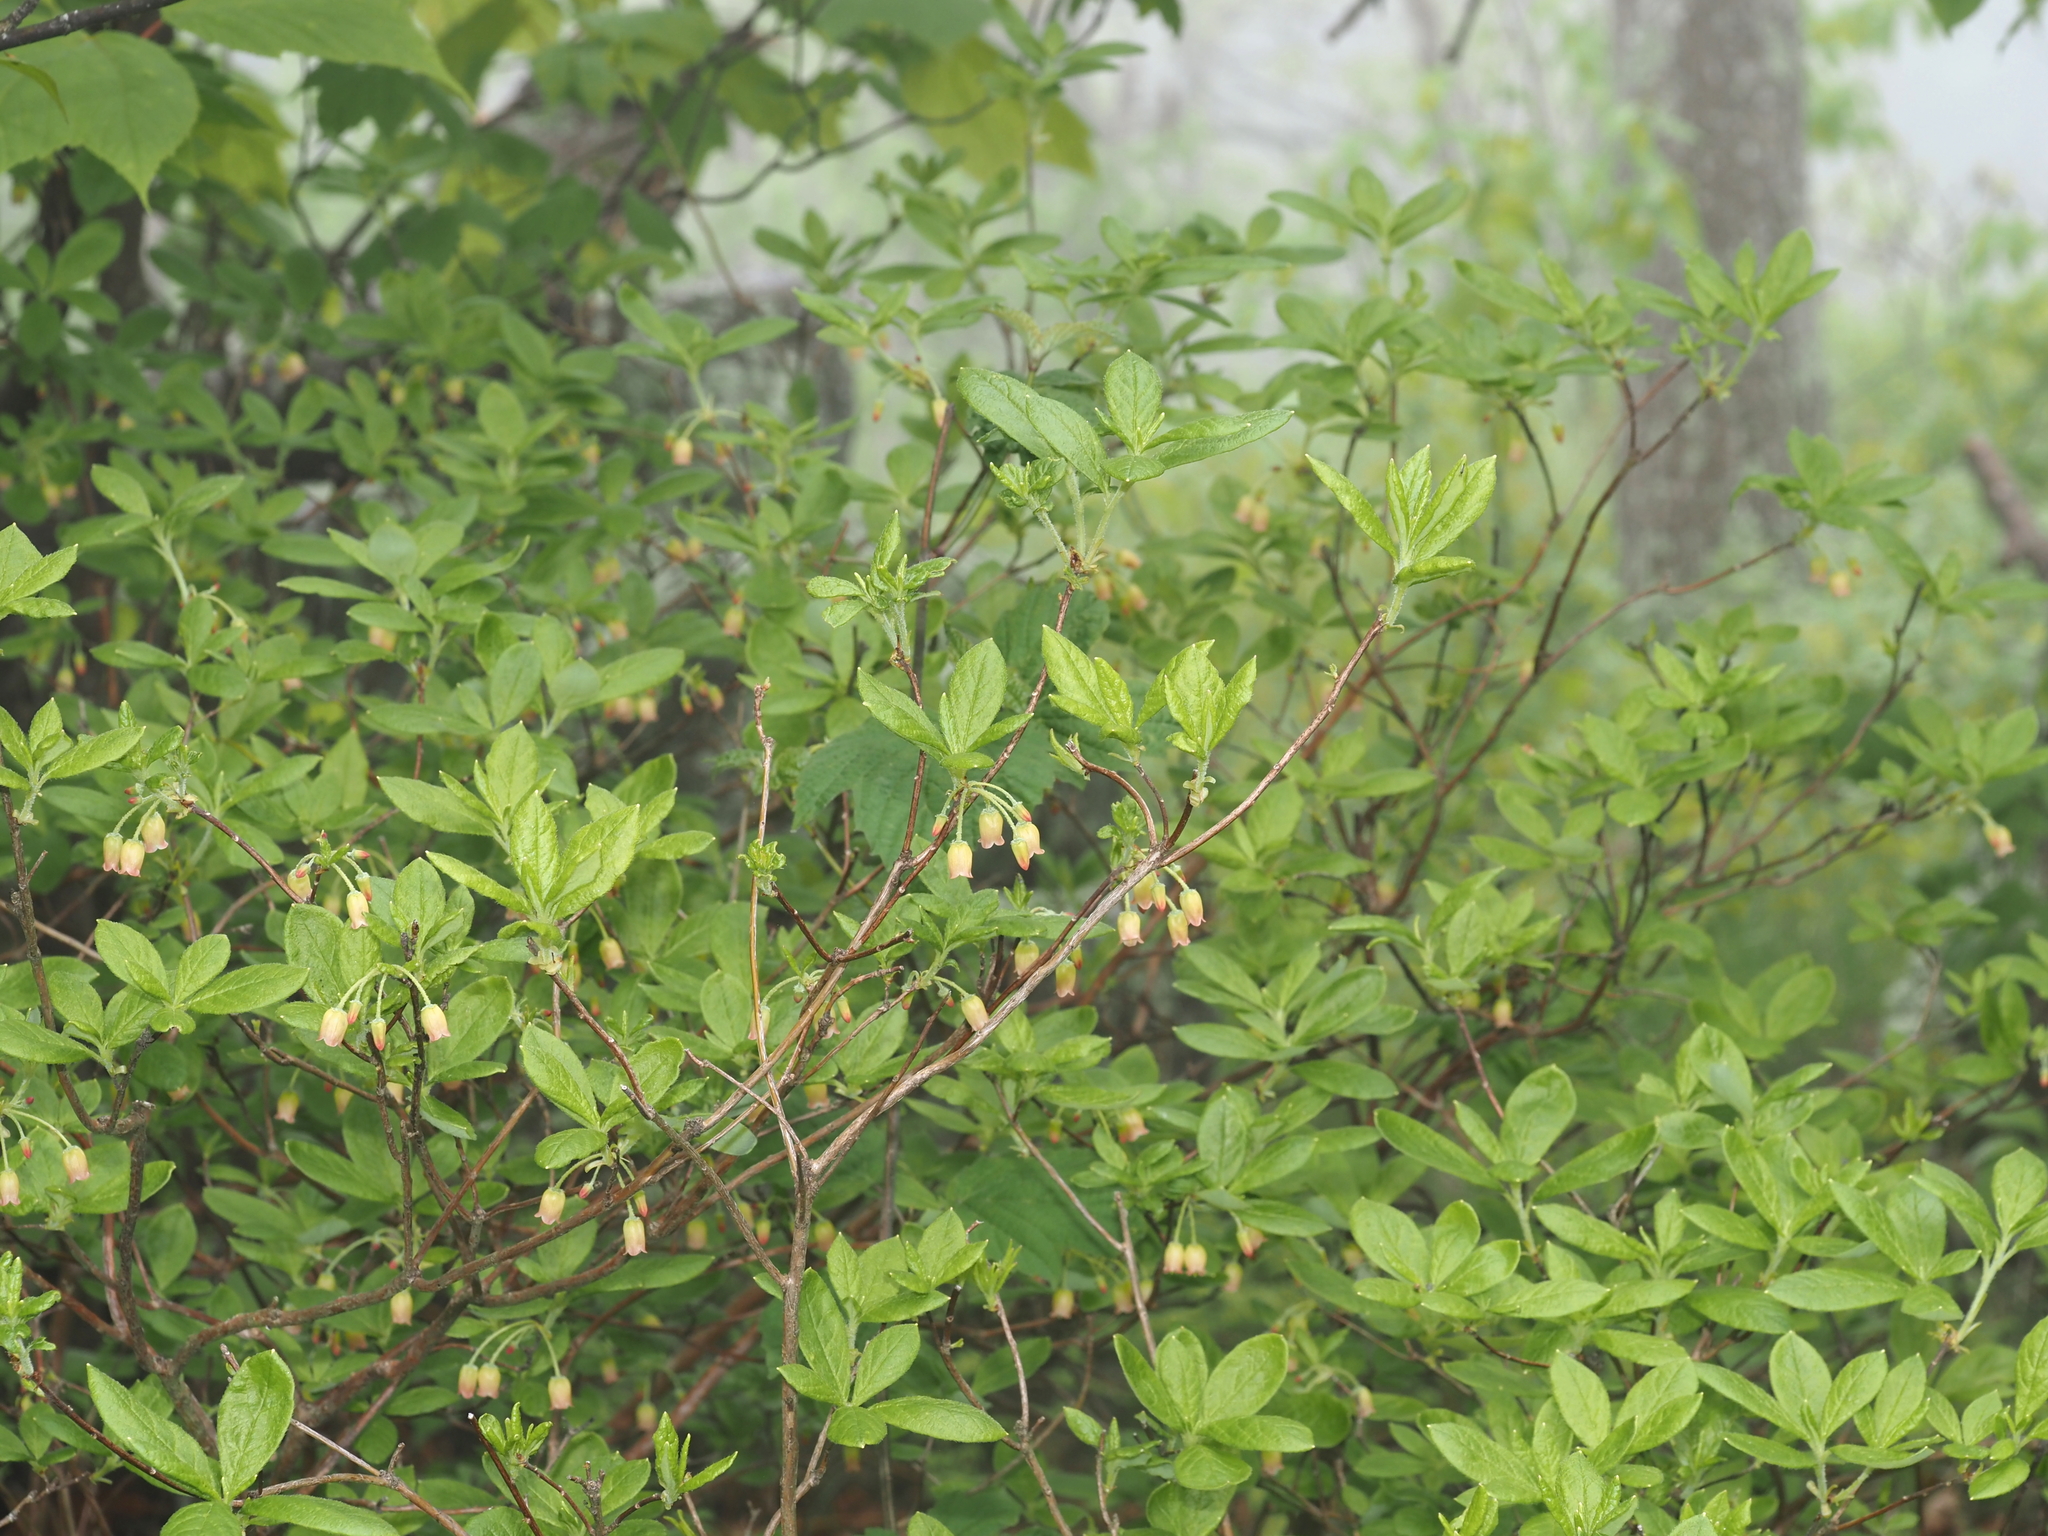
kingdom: Plantae
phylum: Tracheophyta
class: Magnoliopsida
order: Ericales
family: Ericaceae
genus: Rhododendron
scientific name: Rhododendron pilosum
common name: Hairy minniebush
